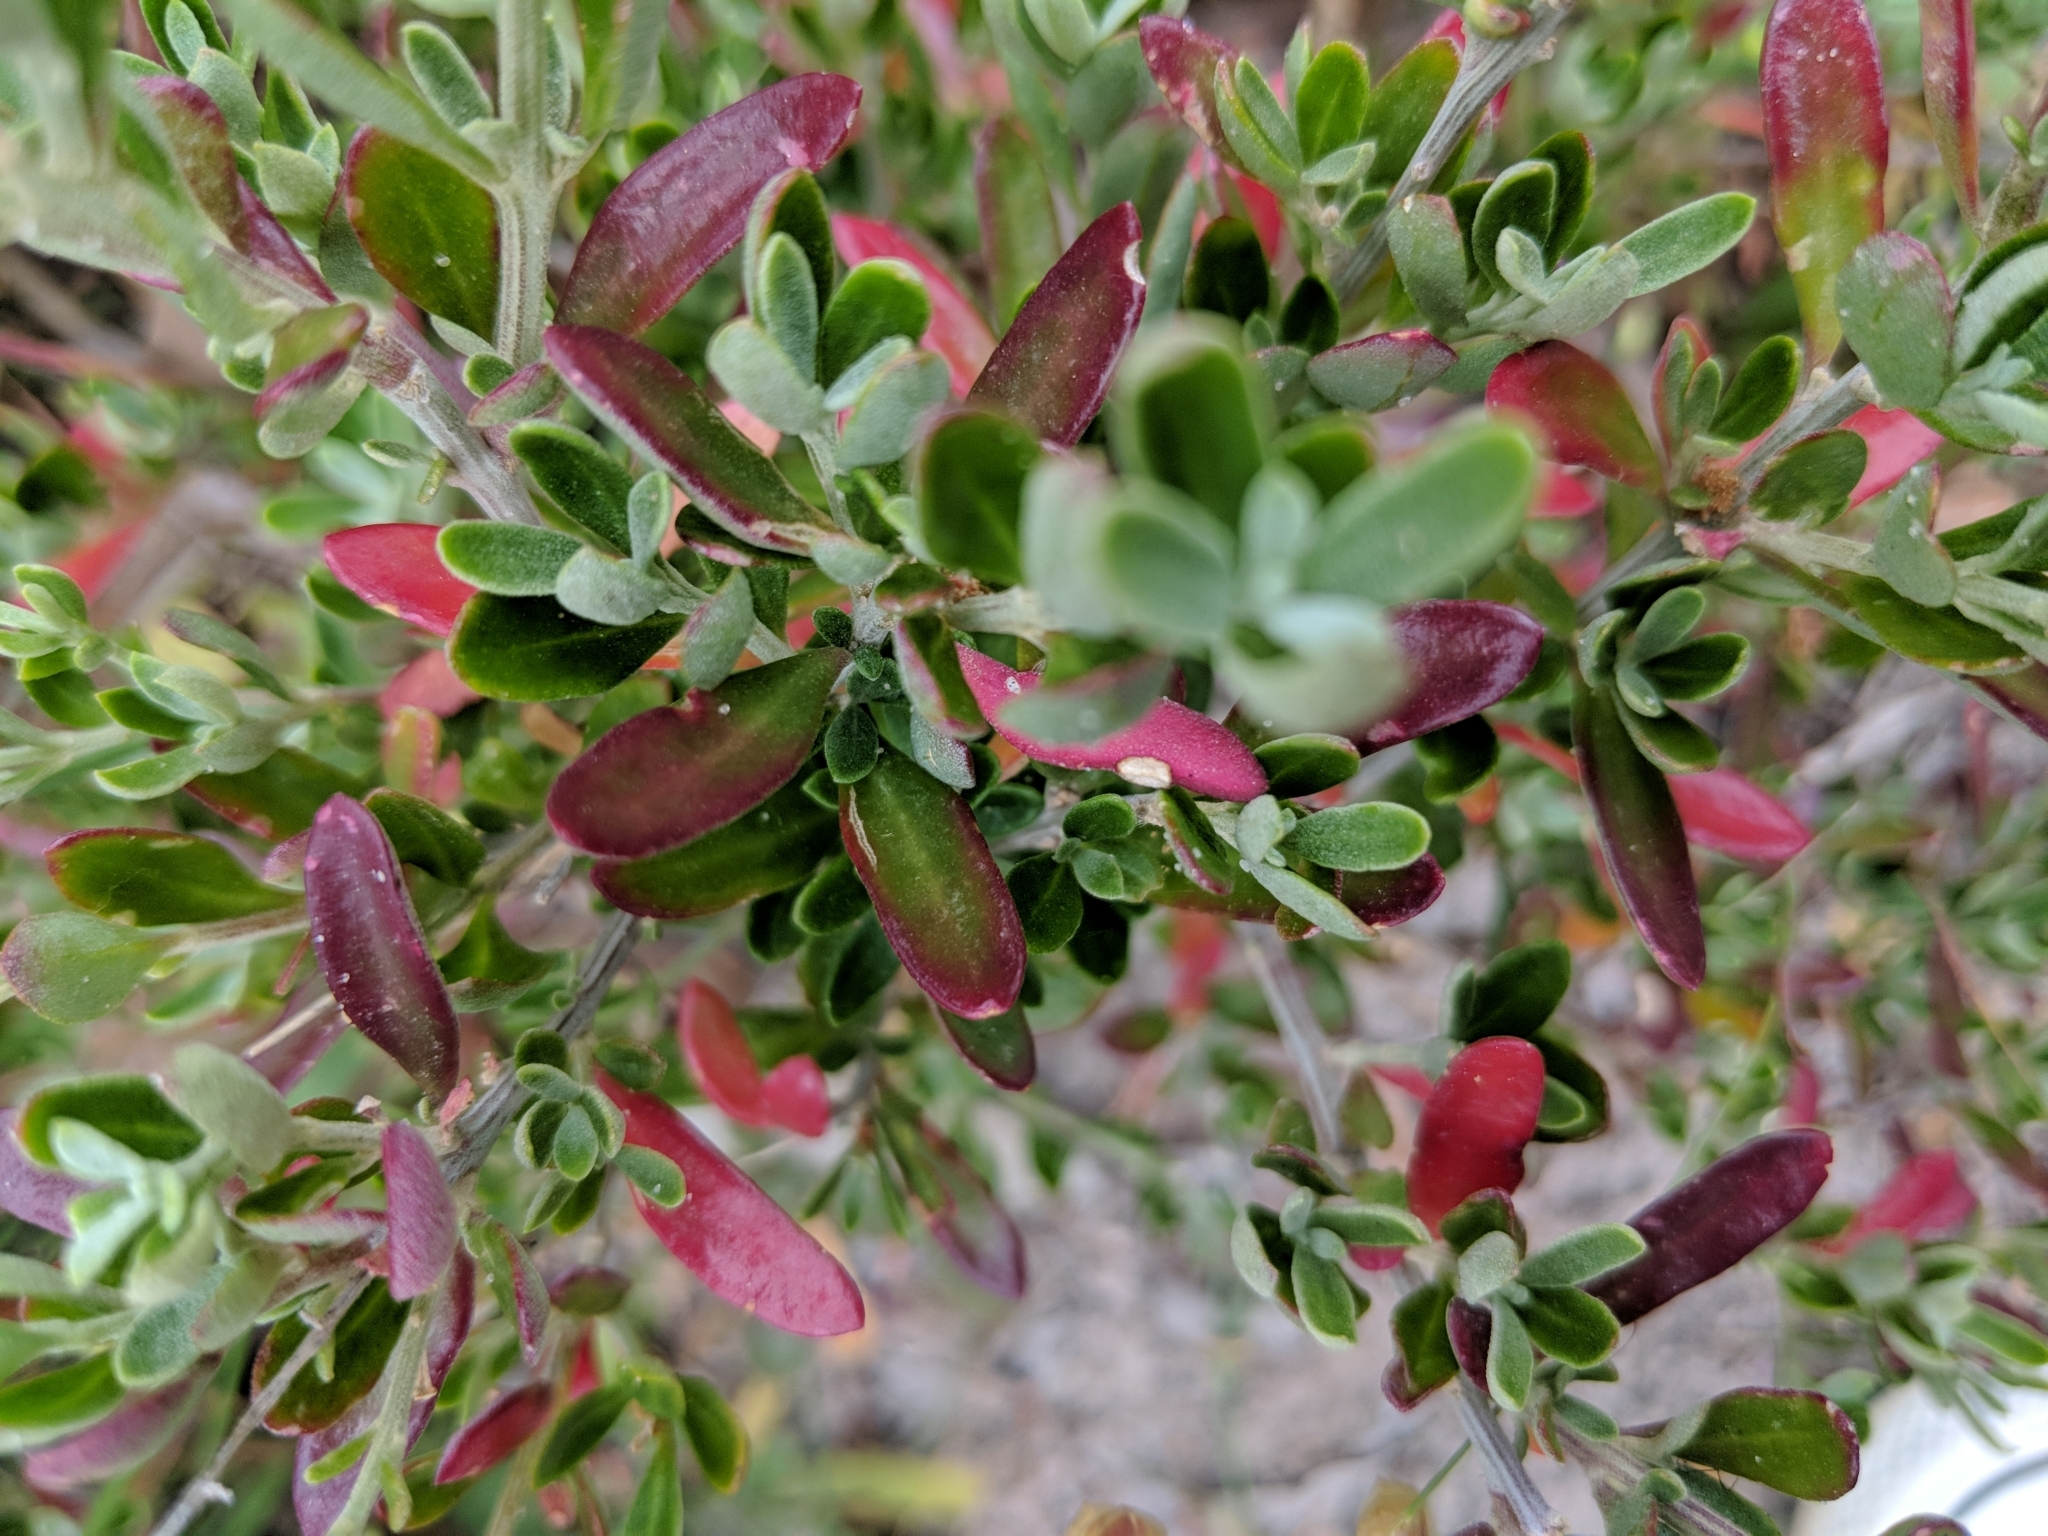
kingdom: Plantae
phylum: Tracheophyta
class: Magnoliopsida
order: Caryophyllales
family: Amaranthaceae
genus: Chenopodium
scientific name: Chenopodium candolleanum
